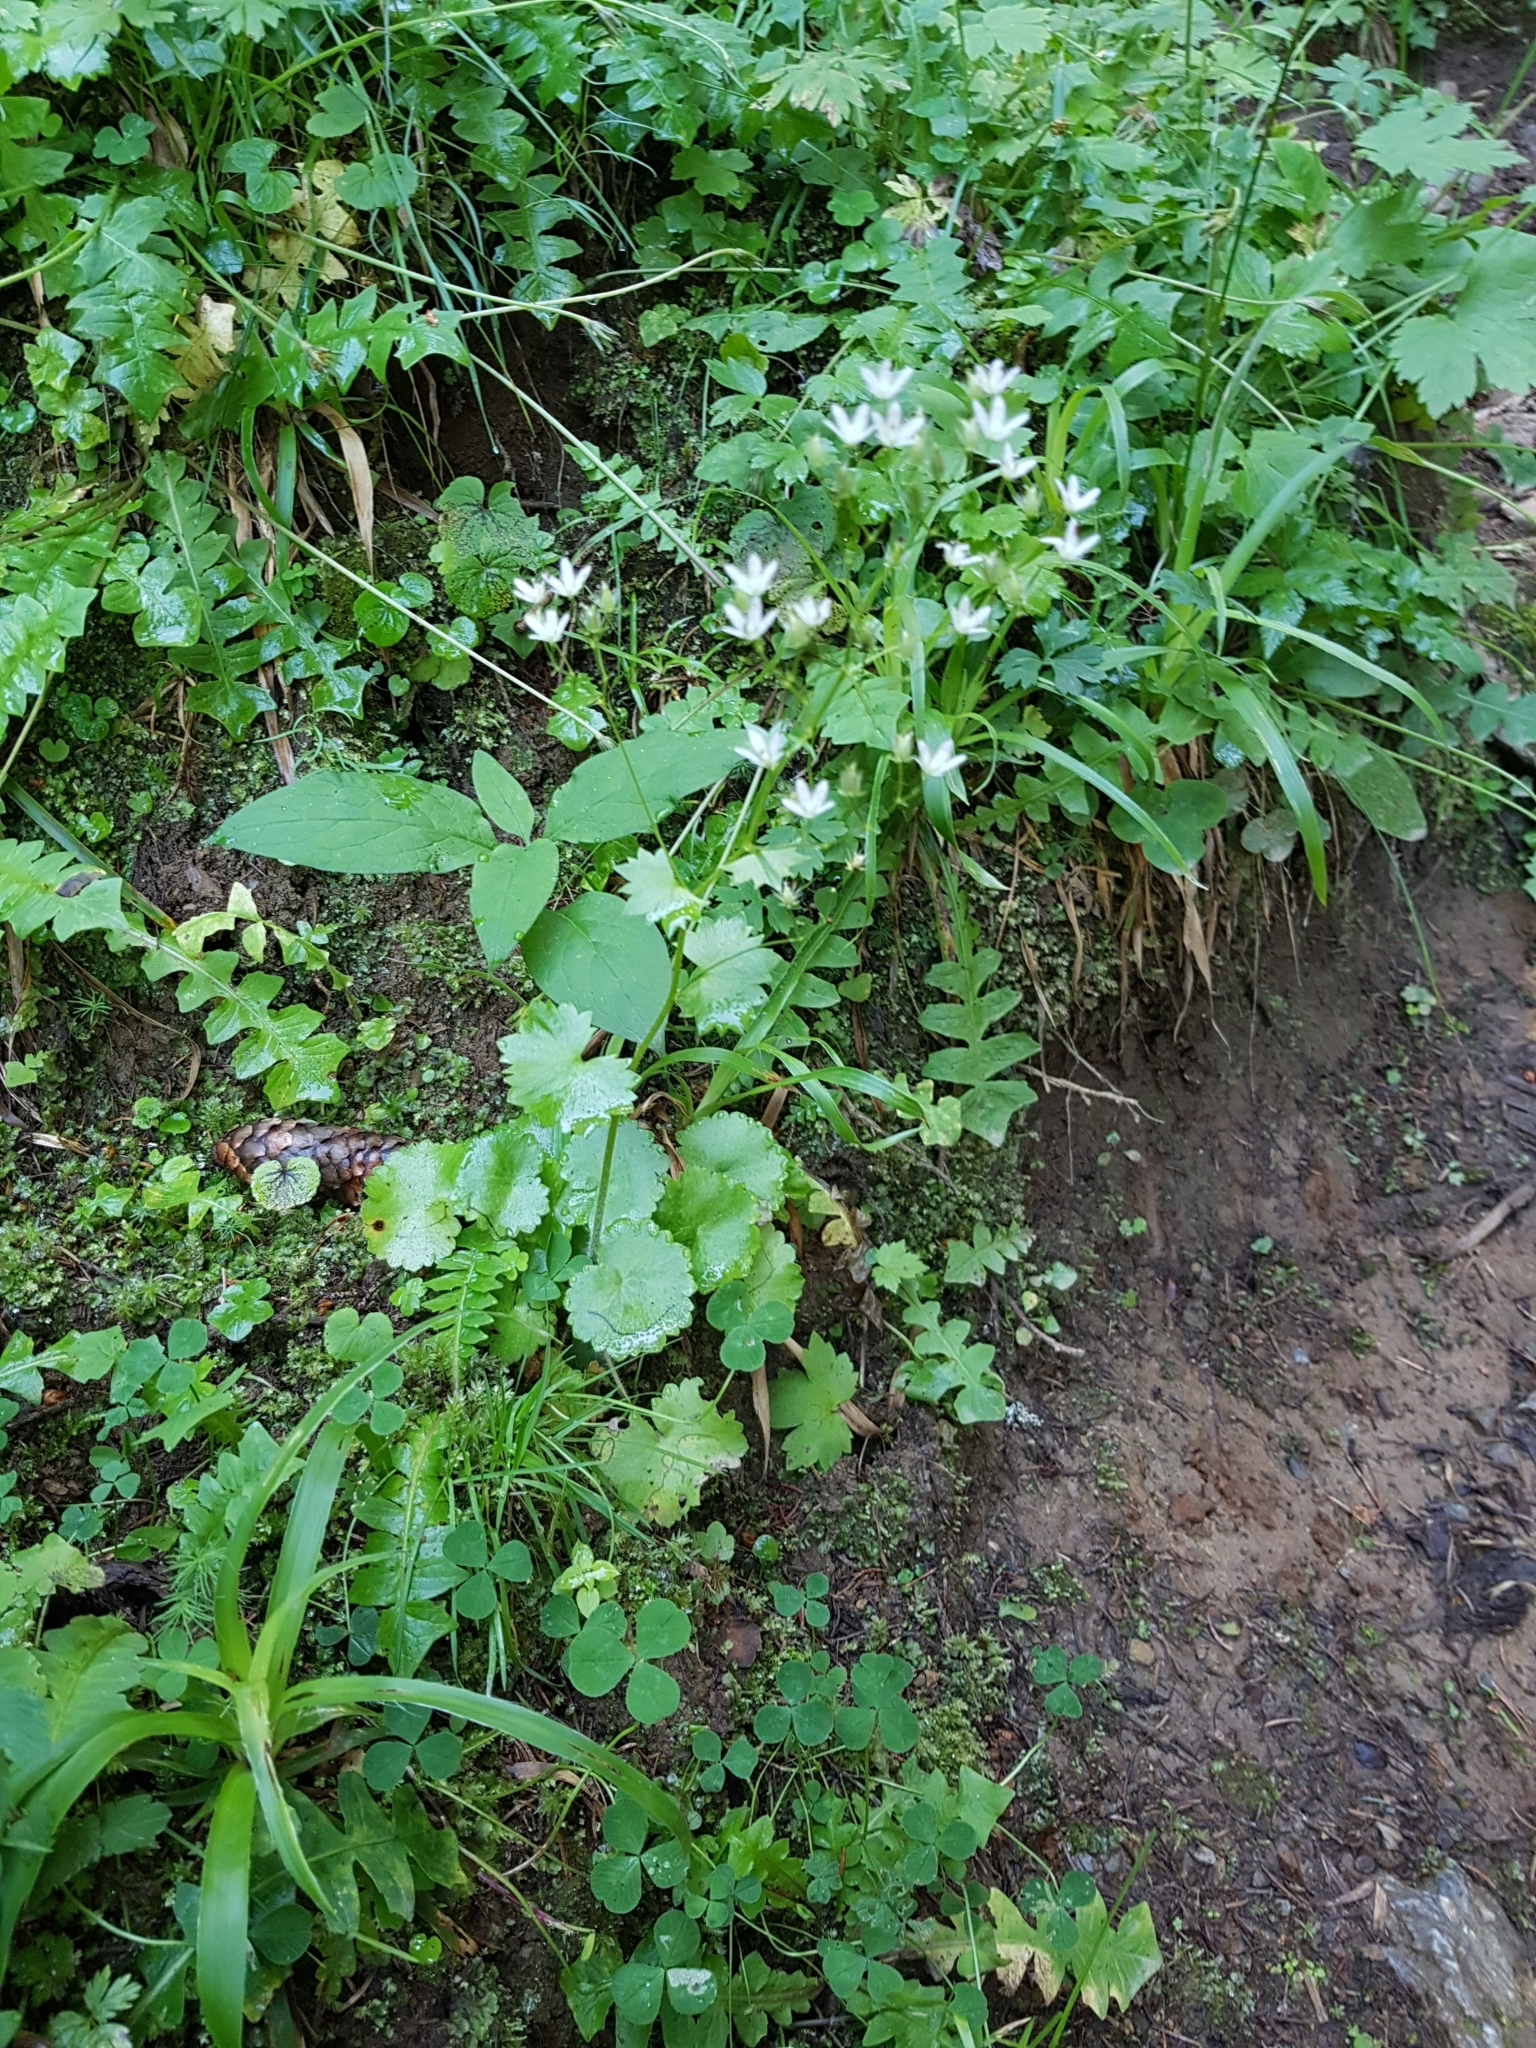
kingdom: Plantae
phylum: Tracheophyta
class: Magnoliopsida
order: Saxifragales
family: Saxifragaceae
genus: Saxifraga
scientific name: Saxifraga rotundifolia
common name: Round-leaved saxifrage
